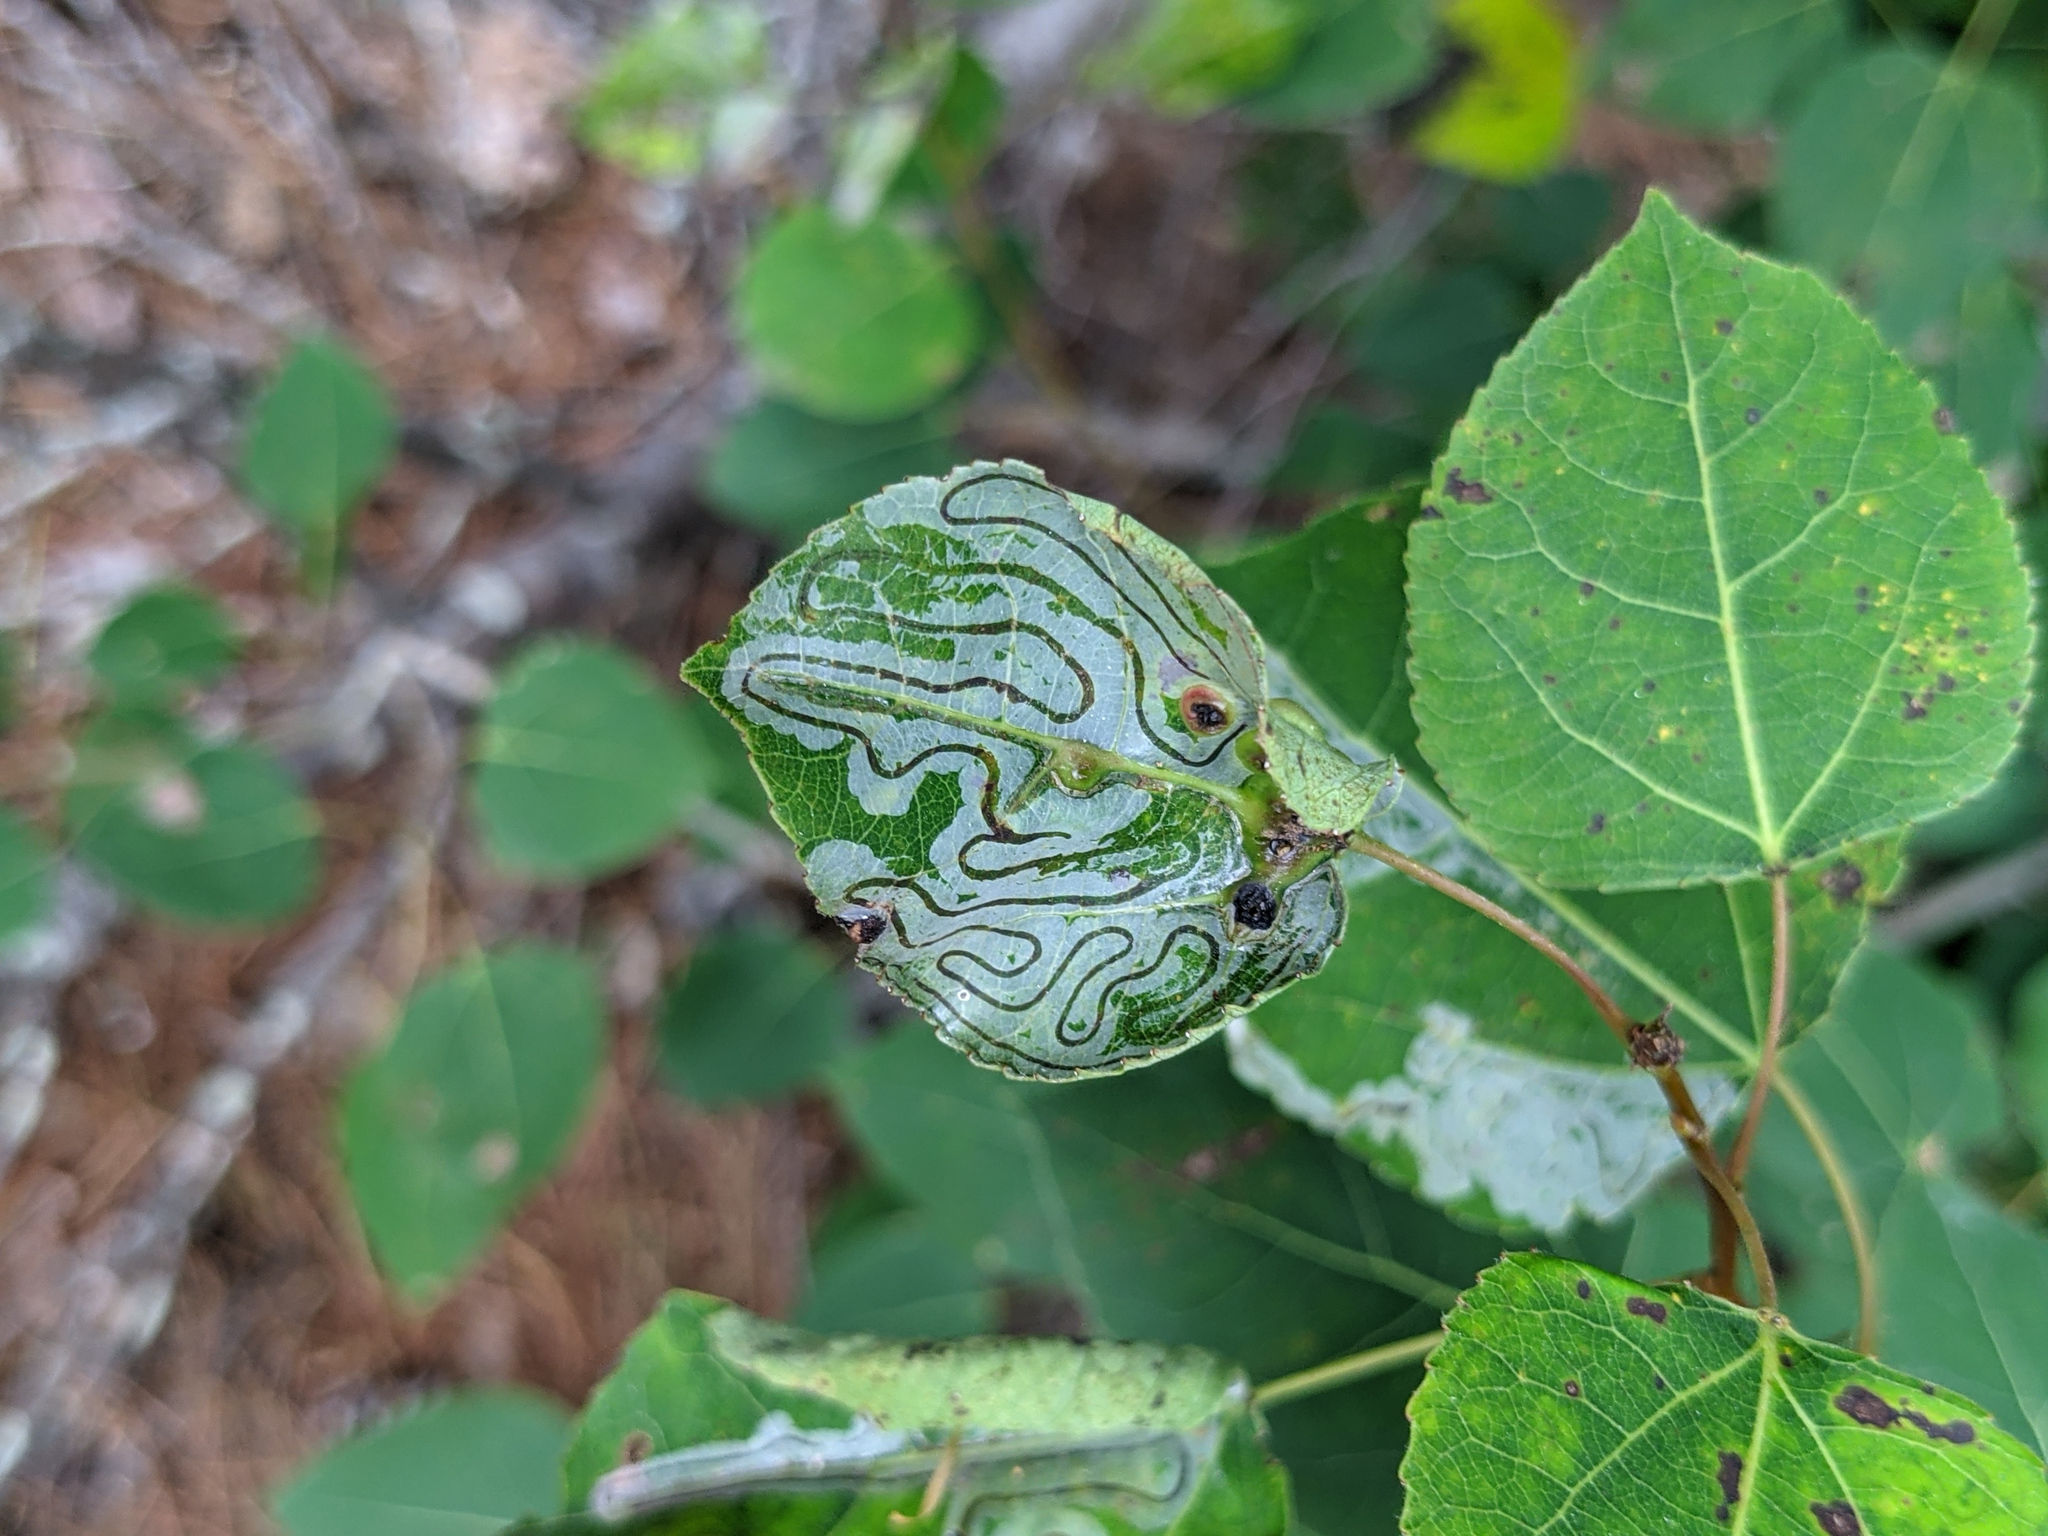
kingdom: Animalia
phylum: Arthropoda
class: Insecta
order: Lepidoptera
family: Gracillariidae
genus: Phyllocnistis
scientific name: Phyllocnistis populiella
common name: Aspen serpentine leafminer moth
